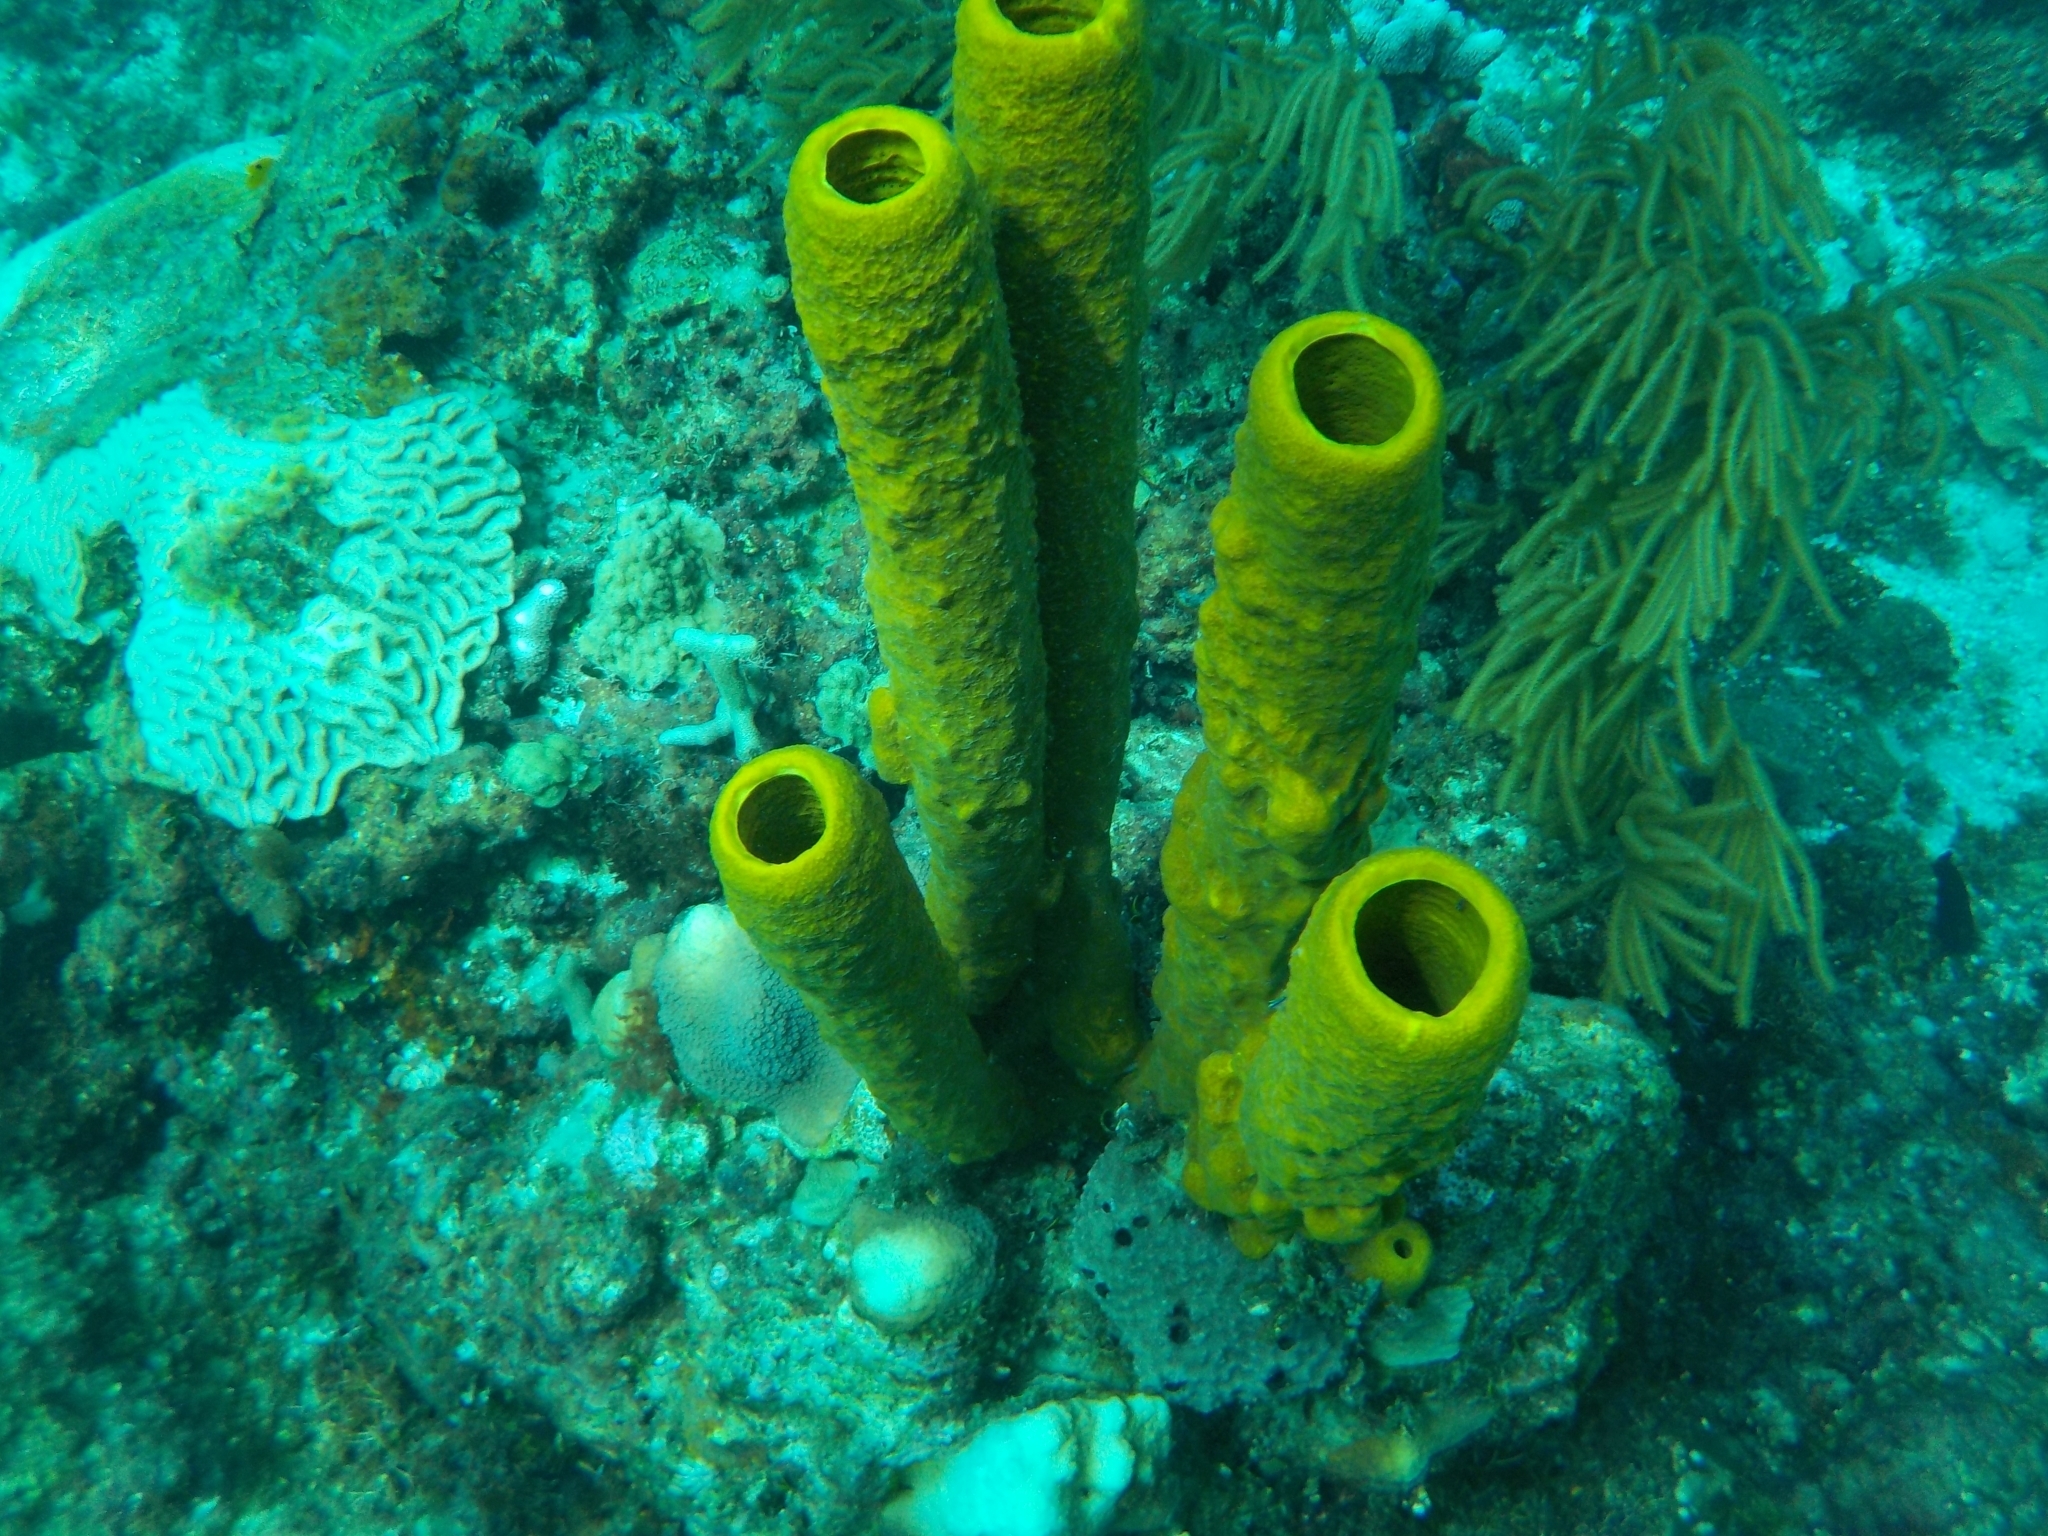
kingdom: Animalia
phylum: Porifera
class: Demospongiae
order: Verongiida
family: Aplysinidae
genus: Aplysina
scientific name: Aplysina fistularis
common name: Candle sponge
